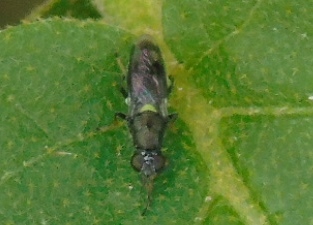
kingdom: Animalia
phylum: Arthropoda
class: Insecta
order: Diptera
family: Stratiomyidae
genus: Myxosargus
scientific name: Myxosargus
